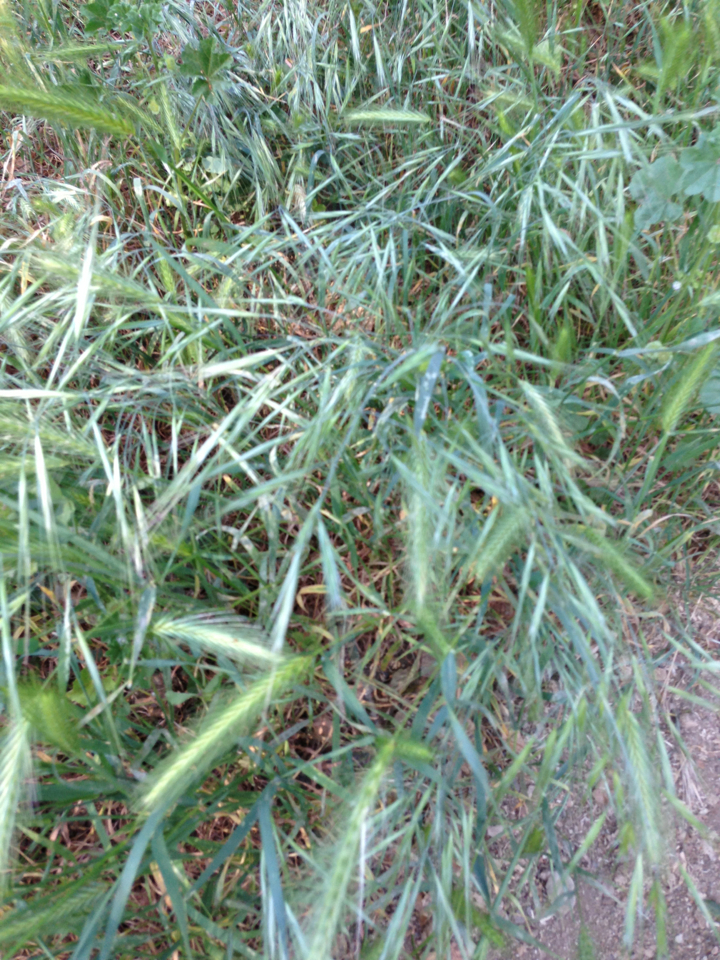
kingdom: Plantae
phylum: Tracheophyta
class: Liliopsida
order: Poales
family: Poaceae
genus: Bromus
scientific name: Bromus diandrus
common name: Ripgut brome
